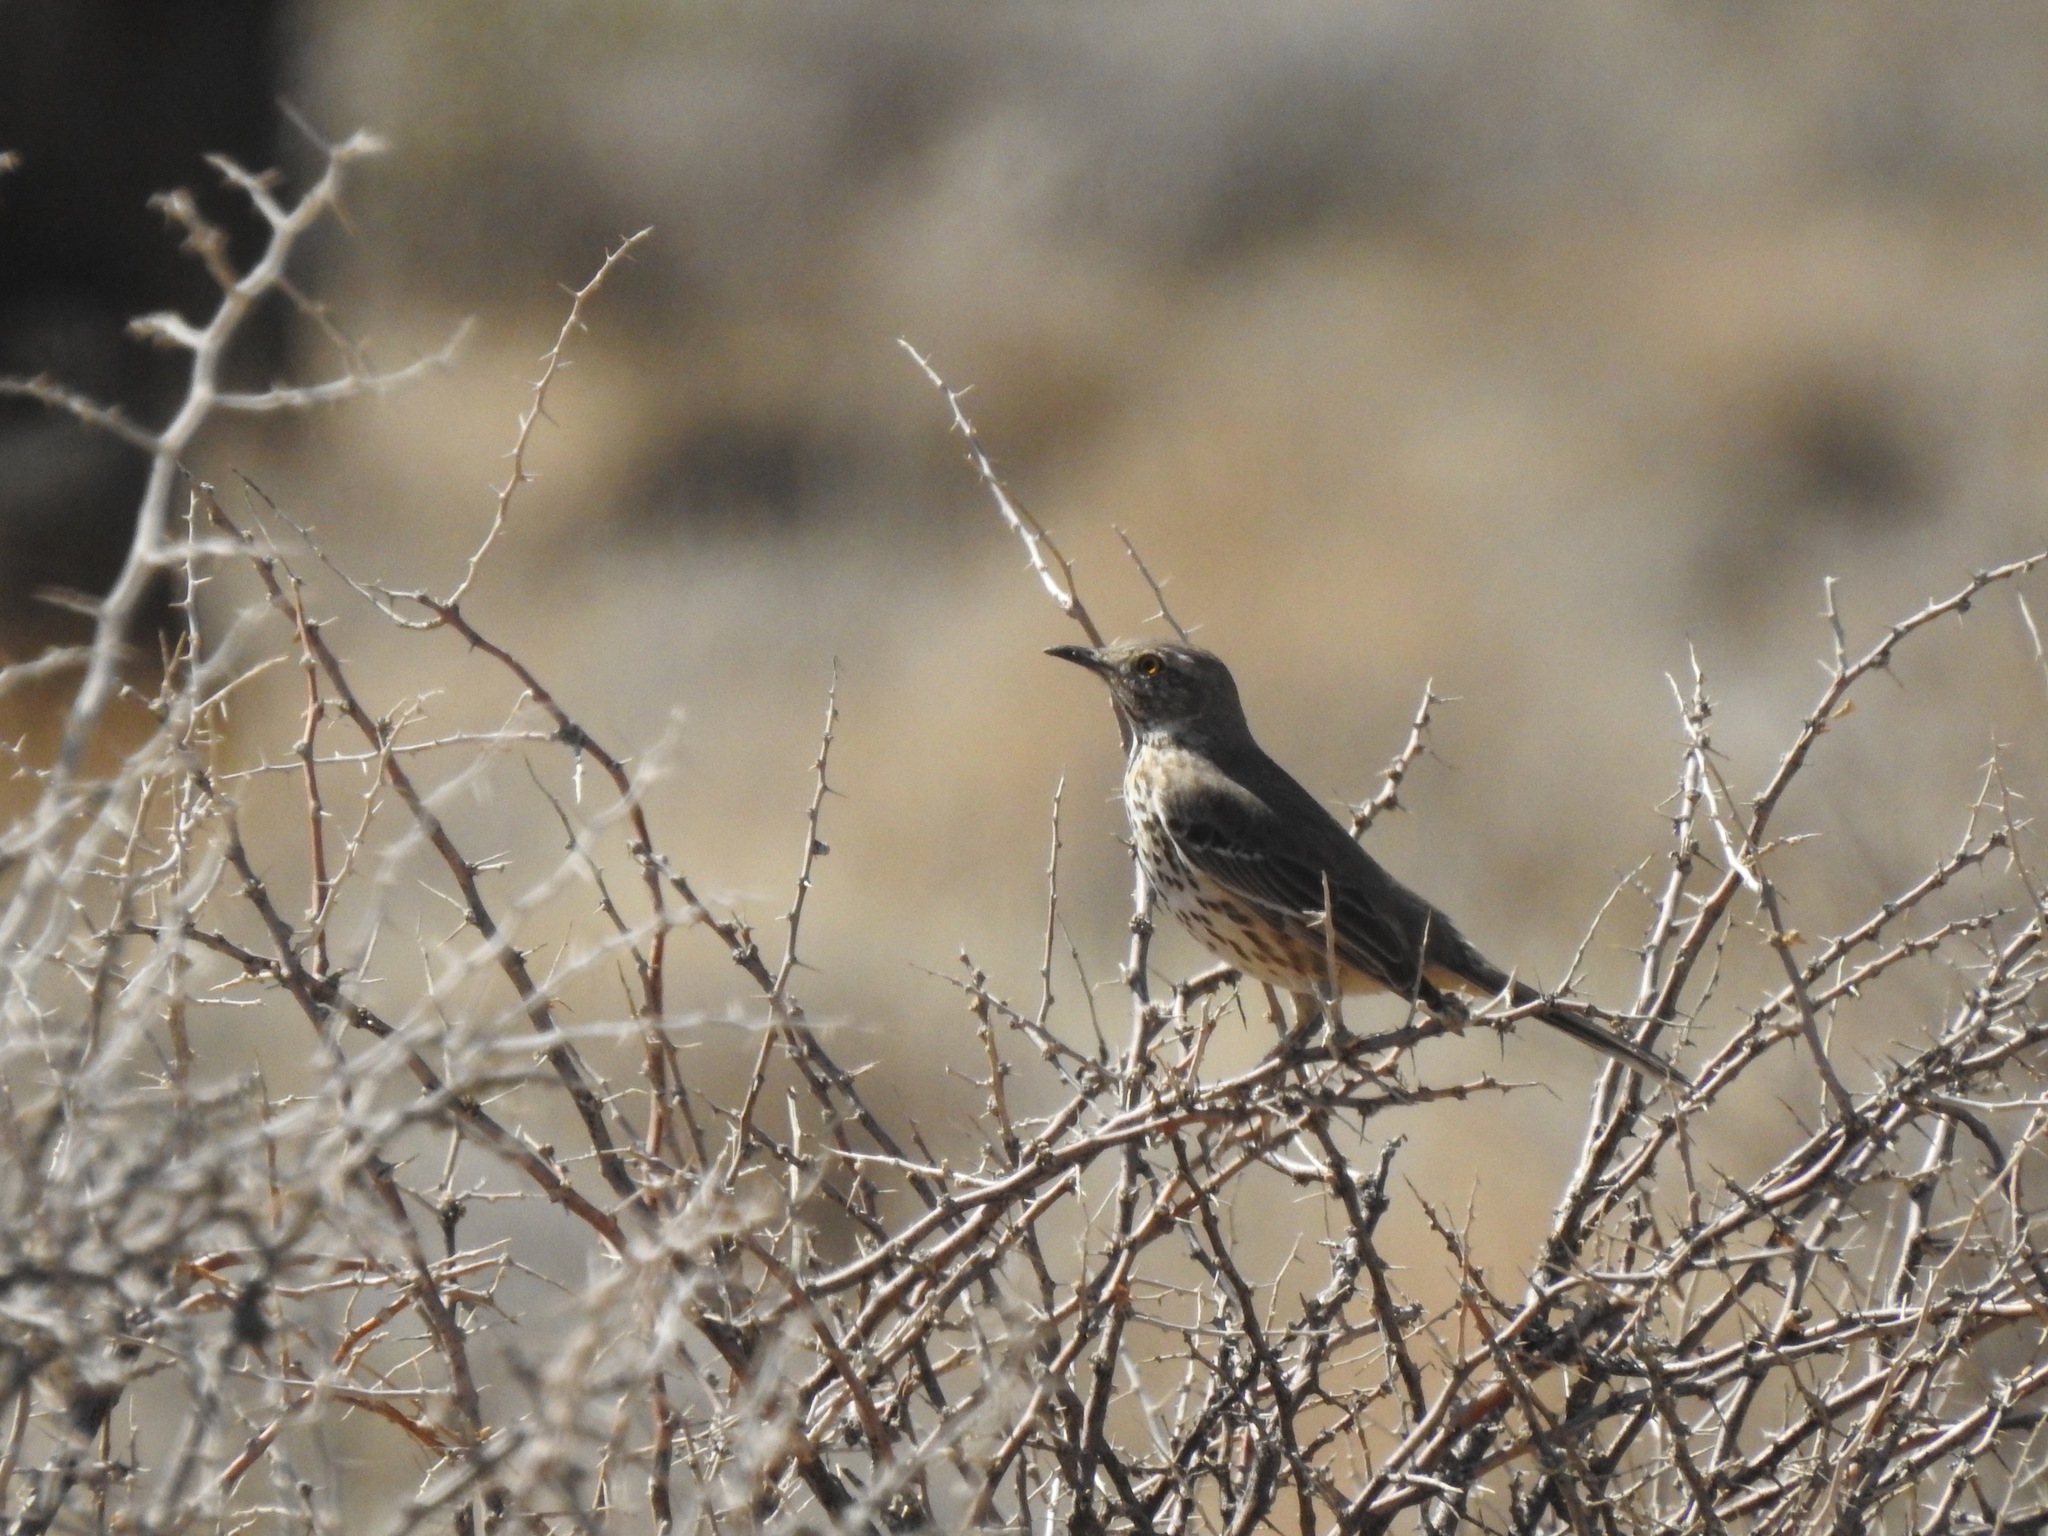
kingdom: Animalia
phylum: Chordata
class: Aves
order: Passeriformes
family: Mimidae
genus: Oreoscoptes
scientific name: Oreoscoptes montanus
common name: Sage thrasher
